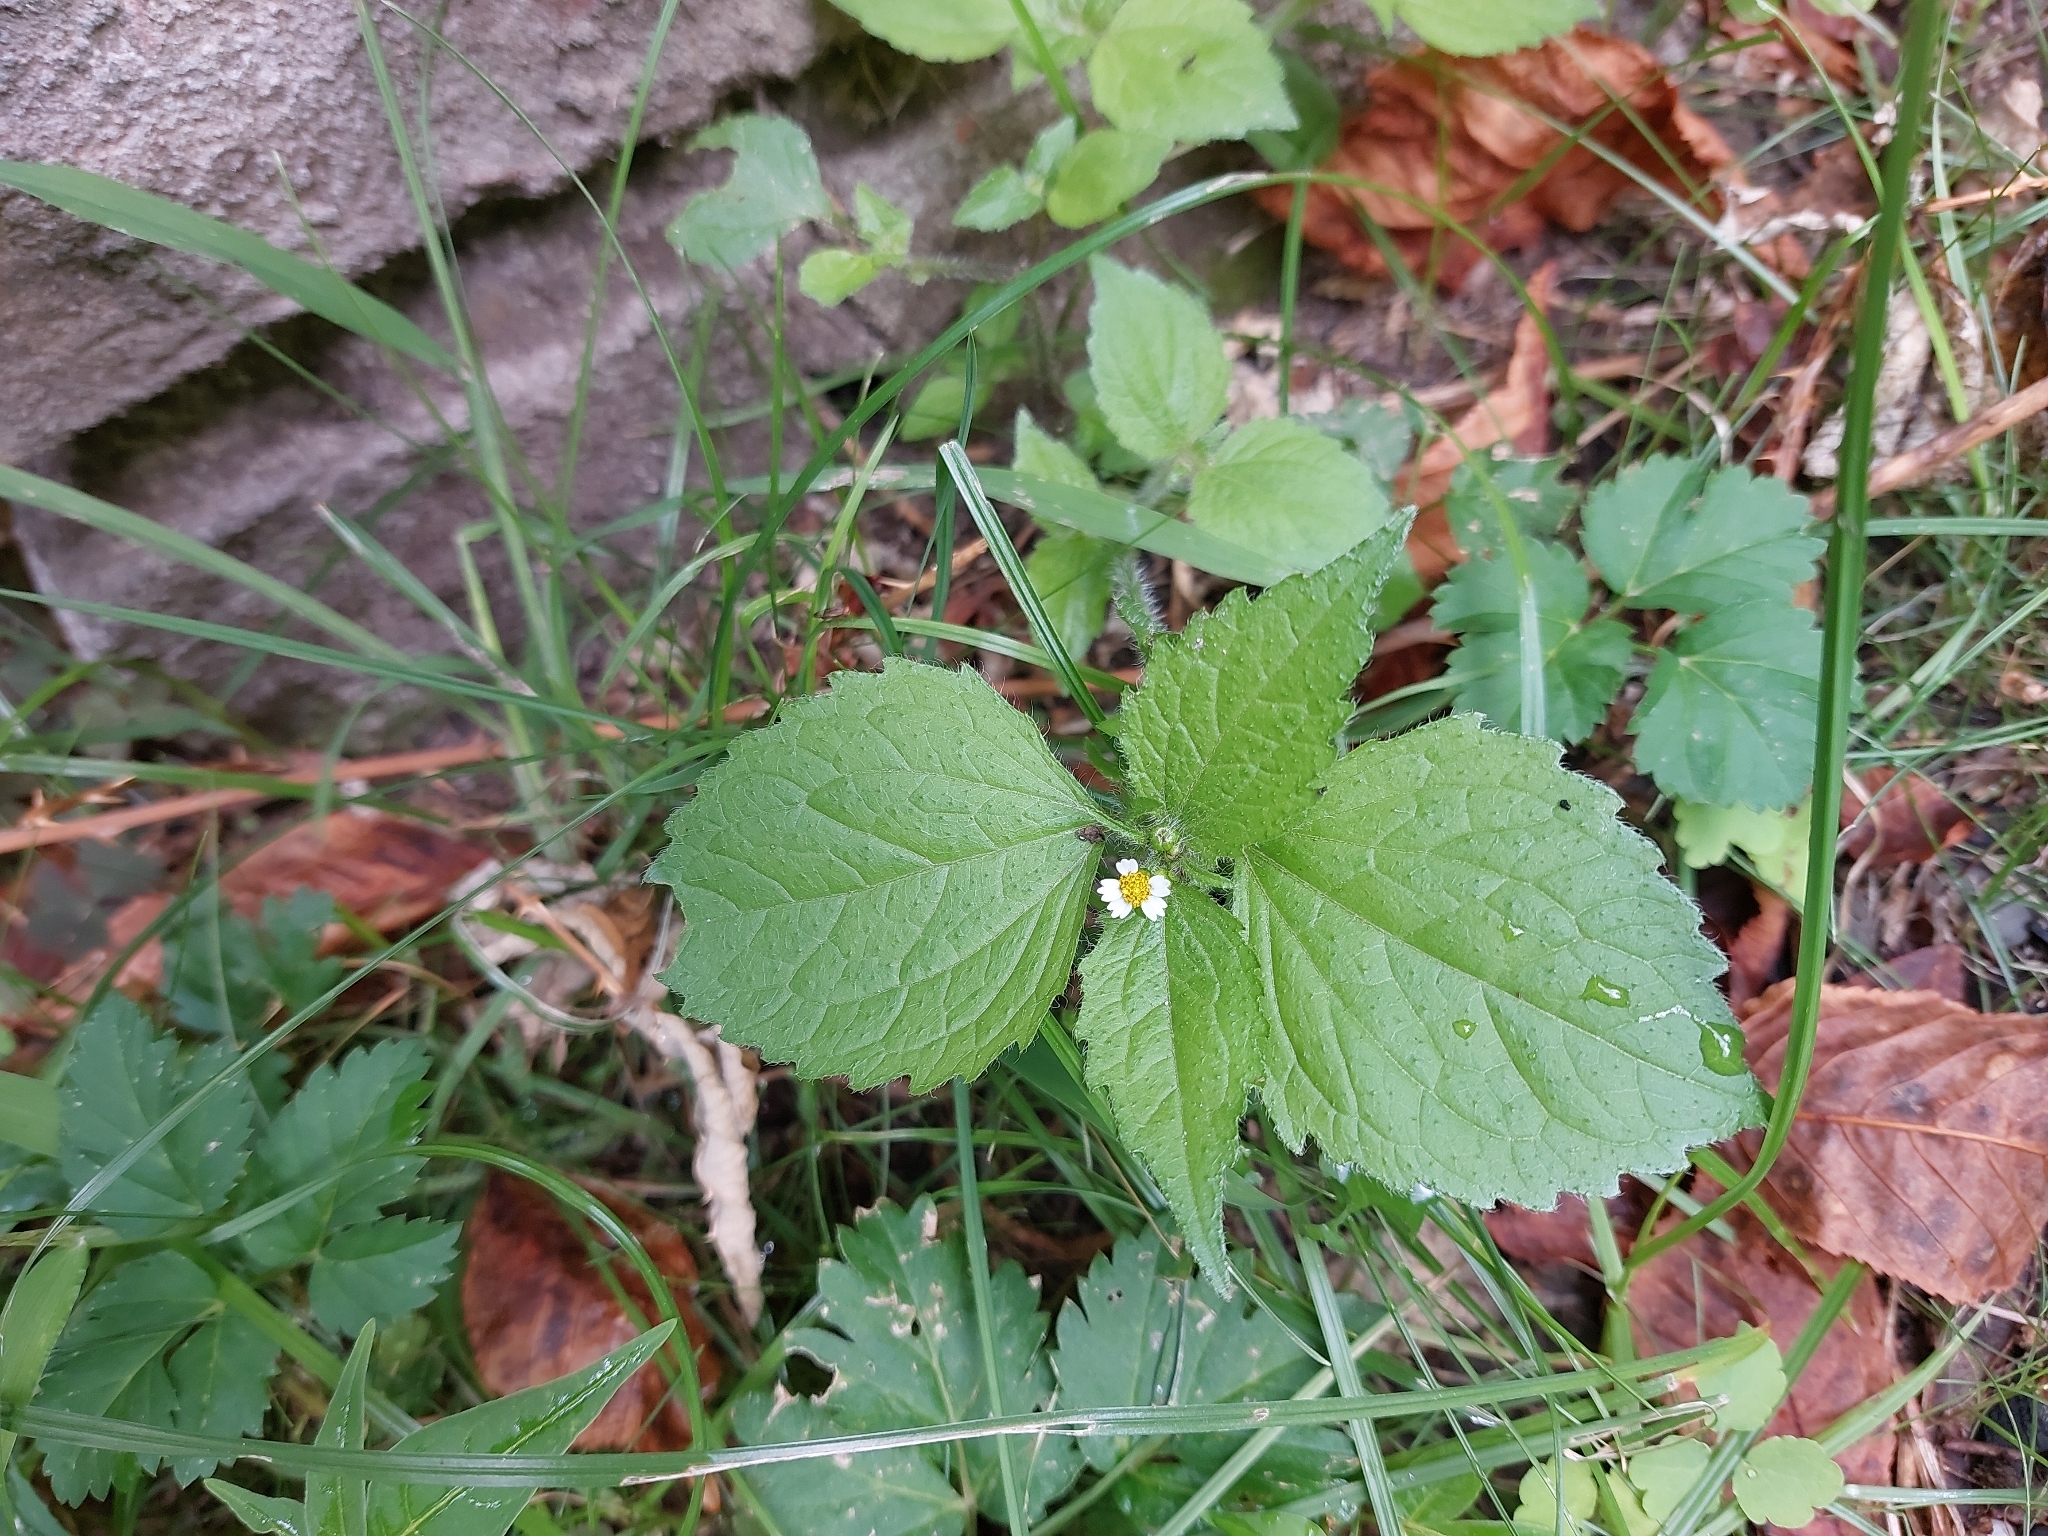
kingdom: Plantae
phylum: Tracheophyta
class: Magnoliopsida
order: Asterales
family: Asteraceae
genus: Galinsoga
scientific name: Galinsoga quadriradiata
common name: Shaggy soldier
